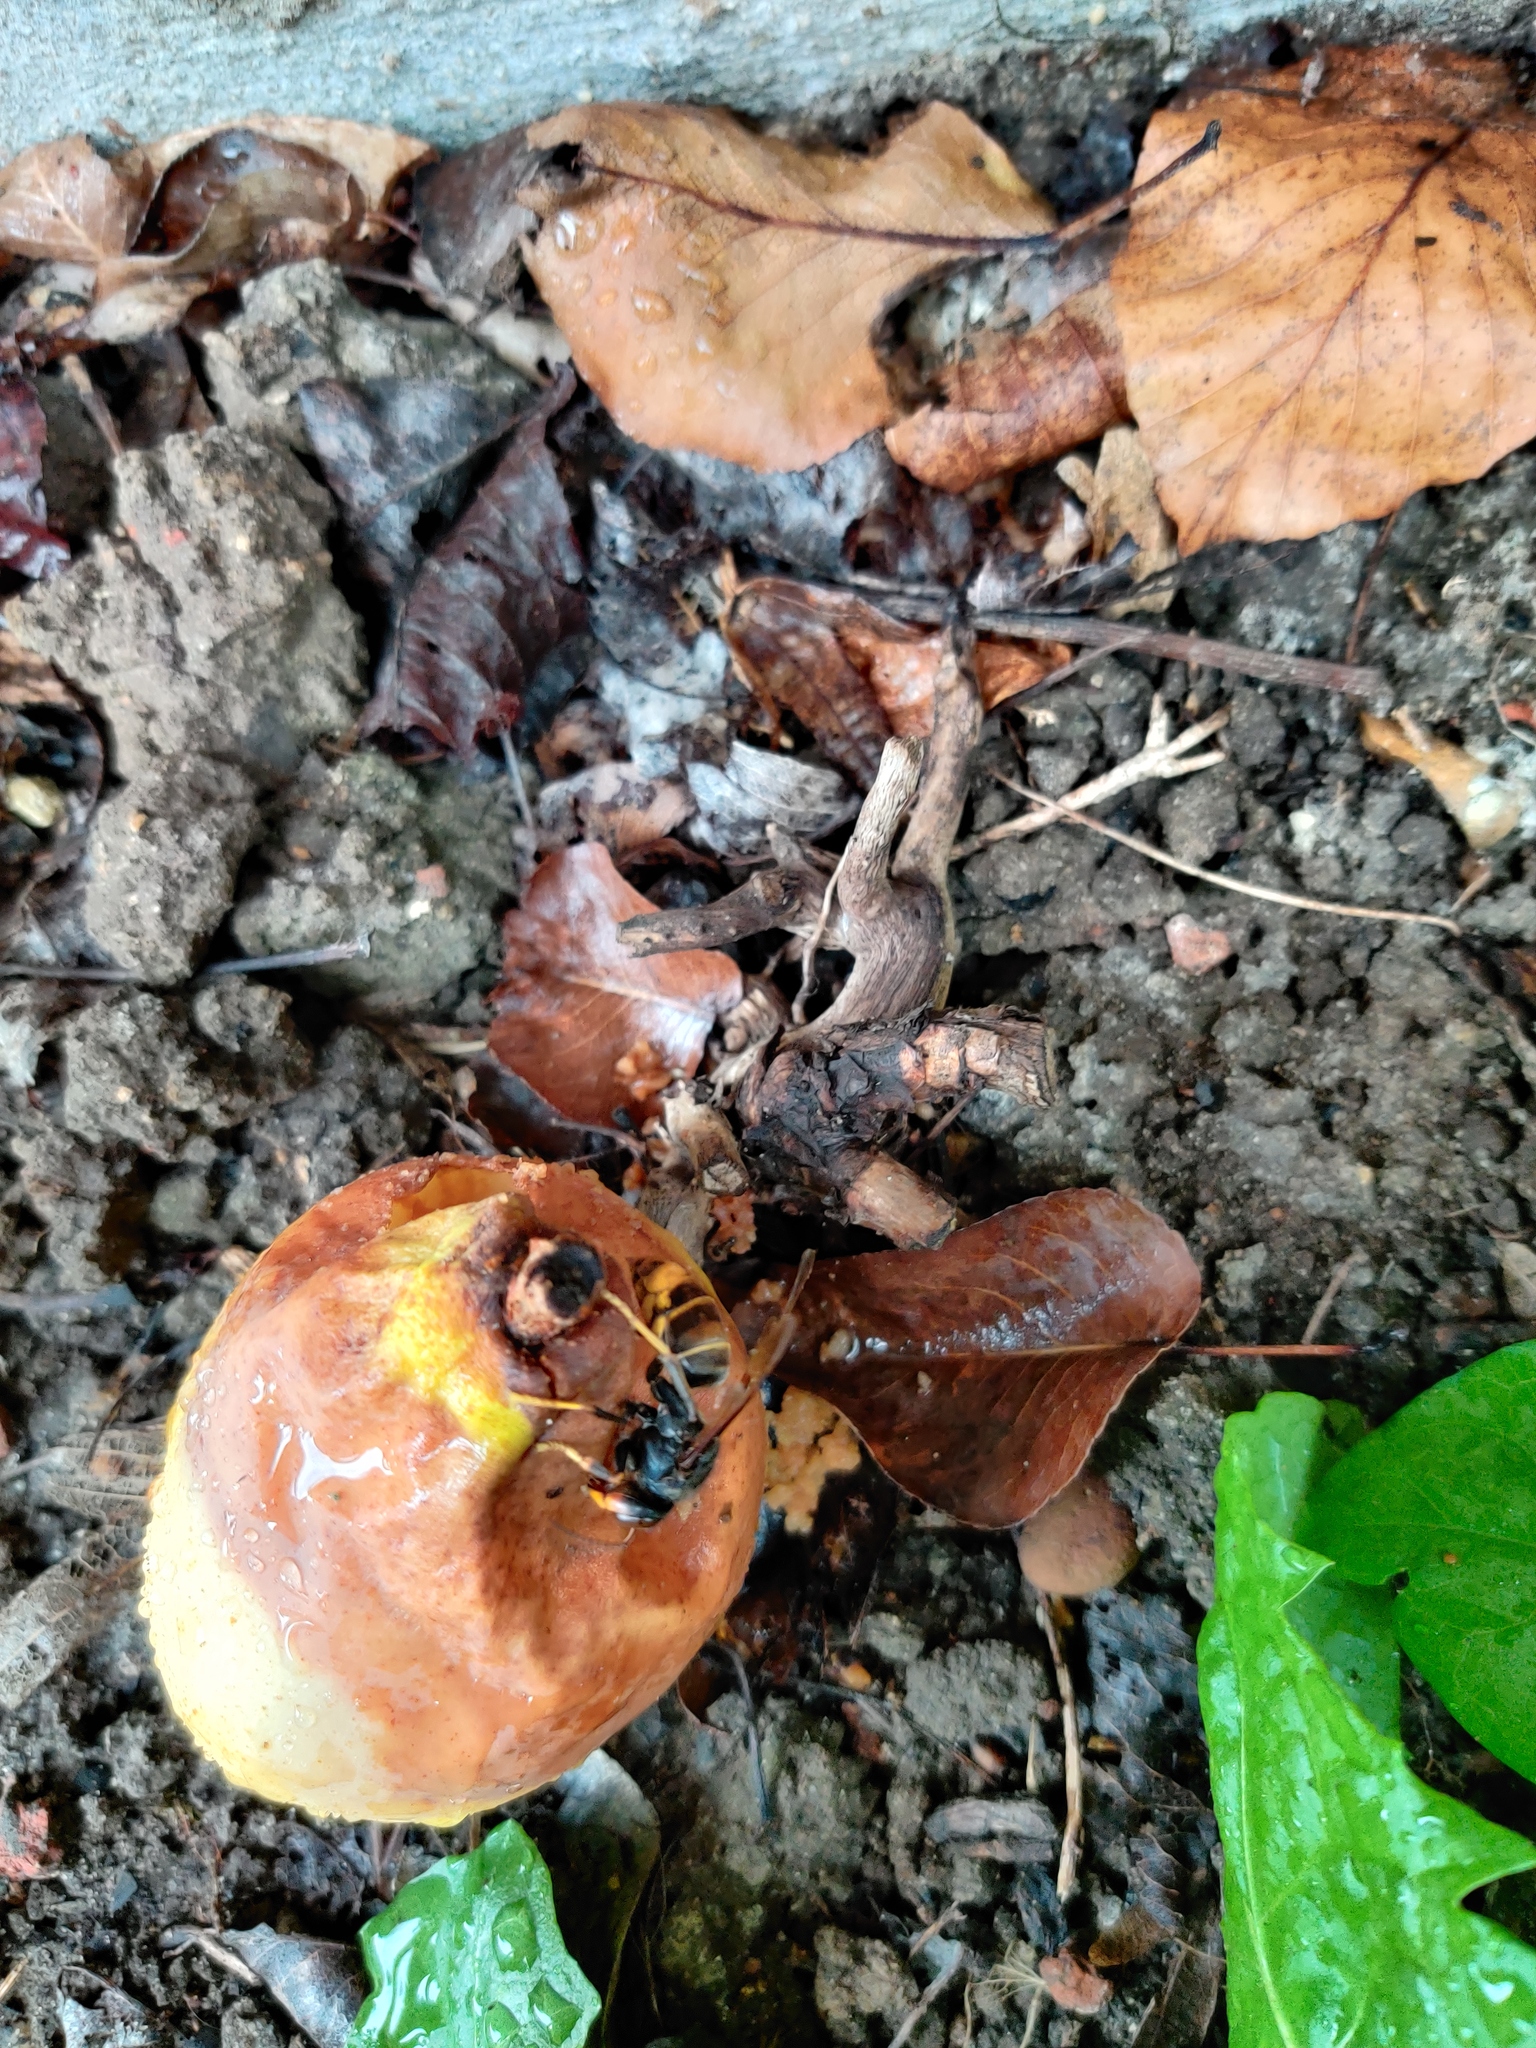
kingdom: Animalia
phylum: Arthropoda
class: Insecta
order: Hymenoptera
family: Vespidae
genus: Vespa
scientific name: Vespa velutina
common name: Asian hornet
